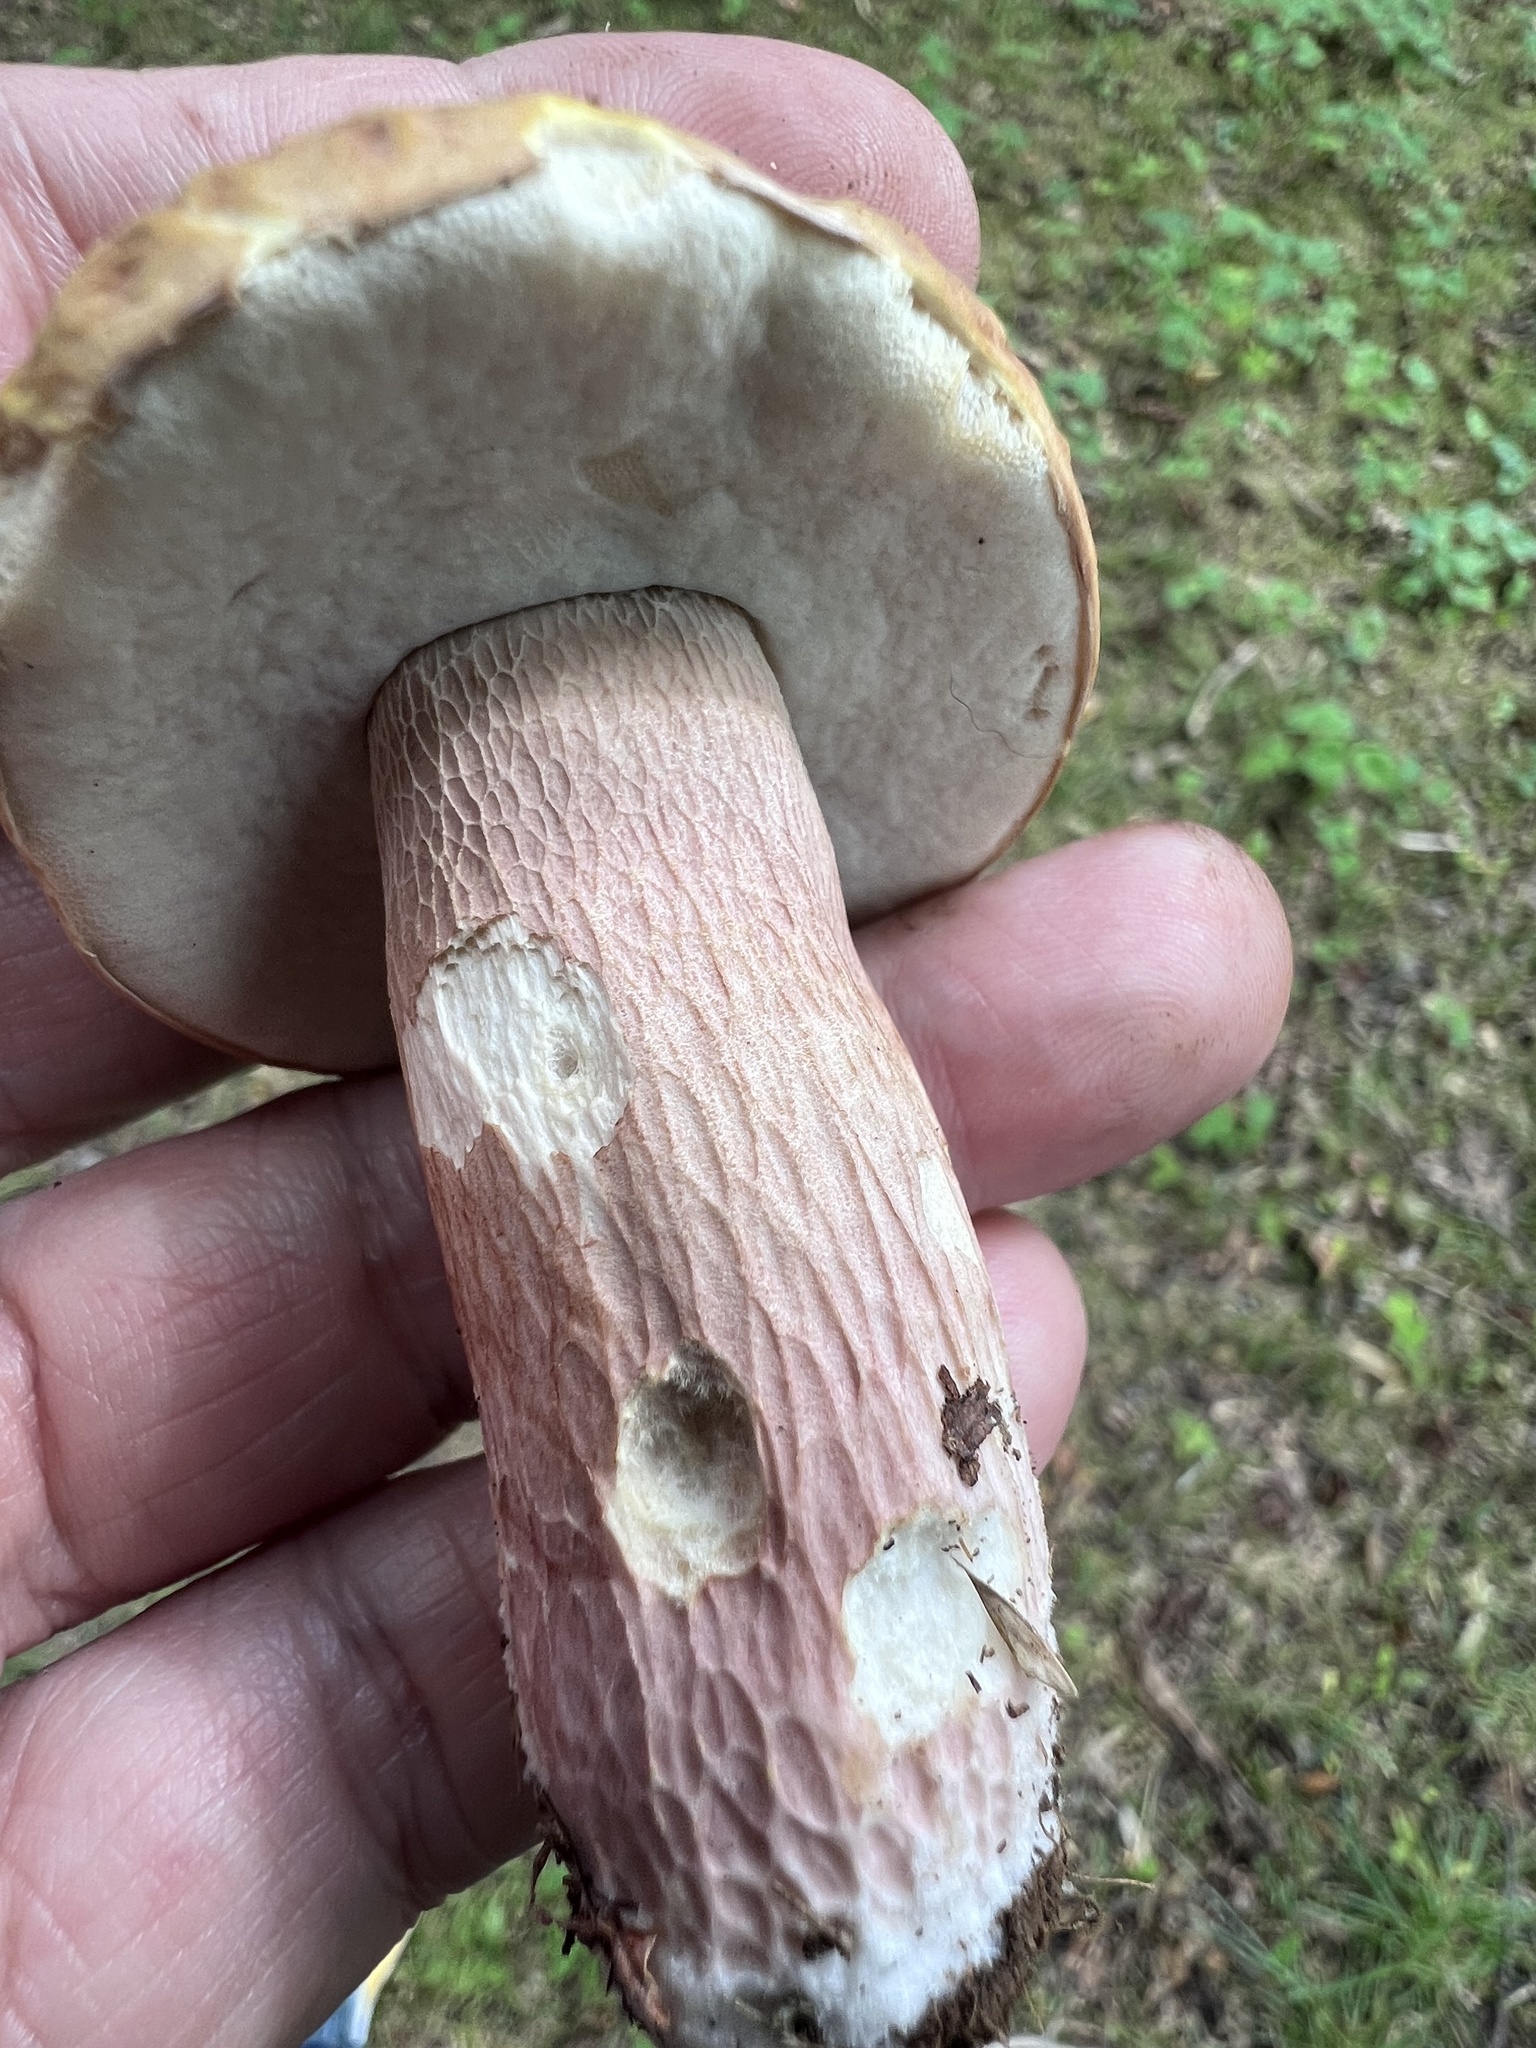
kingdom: Fungi
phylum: Basidiomycota
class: Agaricomycetes
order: Boletales
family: Boletaceae
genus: Xanthoconium
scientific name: Xanthoconium separans
